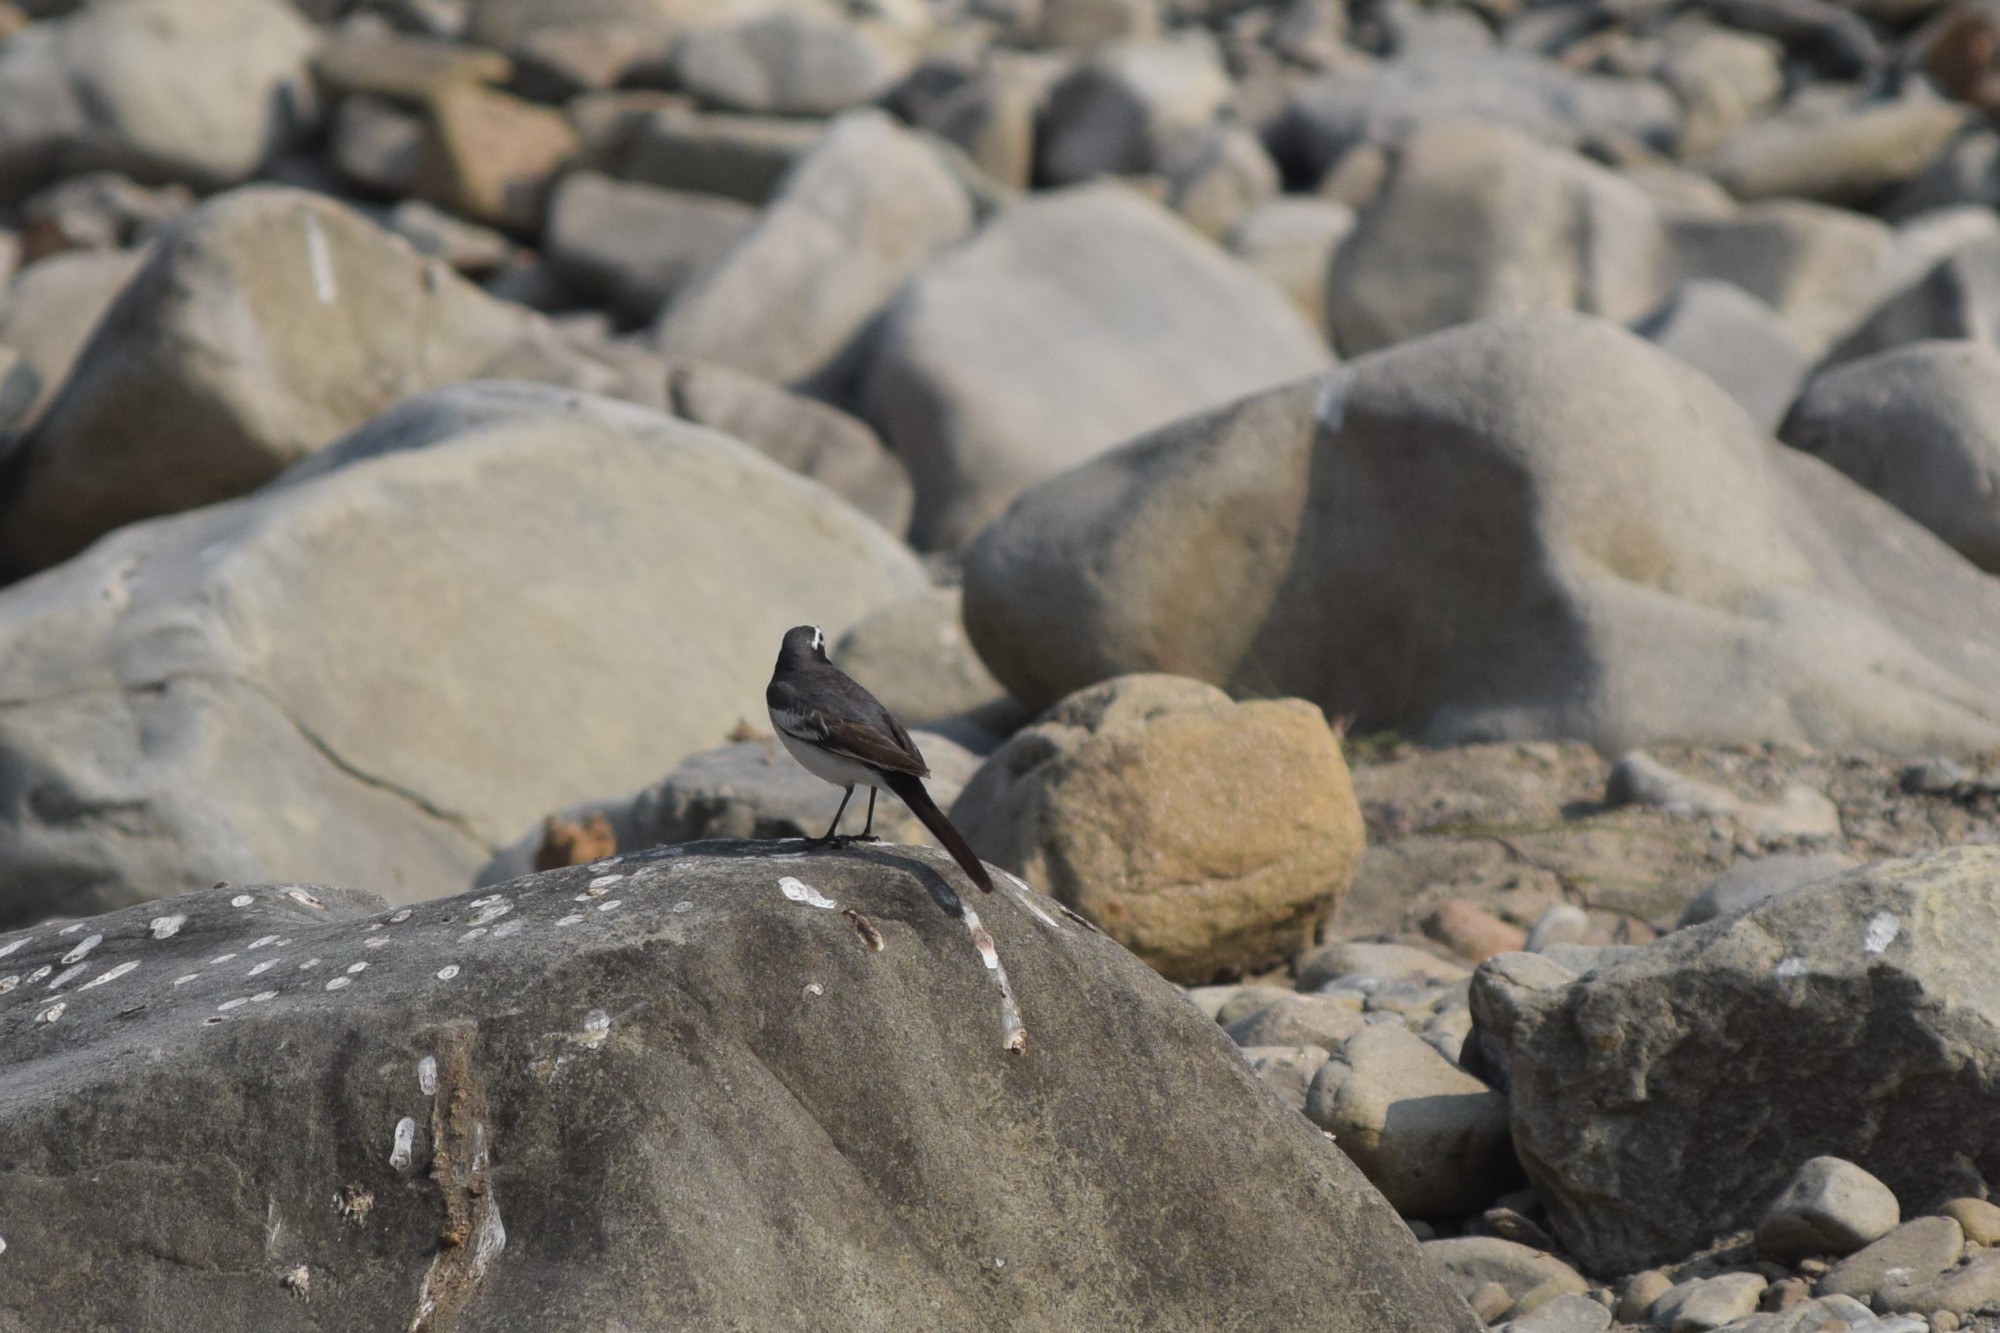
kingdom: Animalia
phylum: Chordata
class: Aves
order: Passeriformes
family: Motacillidae
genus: Motacilla
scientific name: Motacilla maderaspatensis
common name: White-browed wagtail
